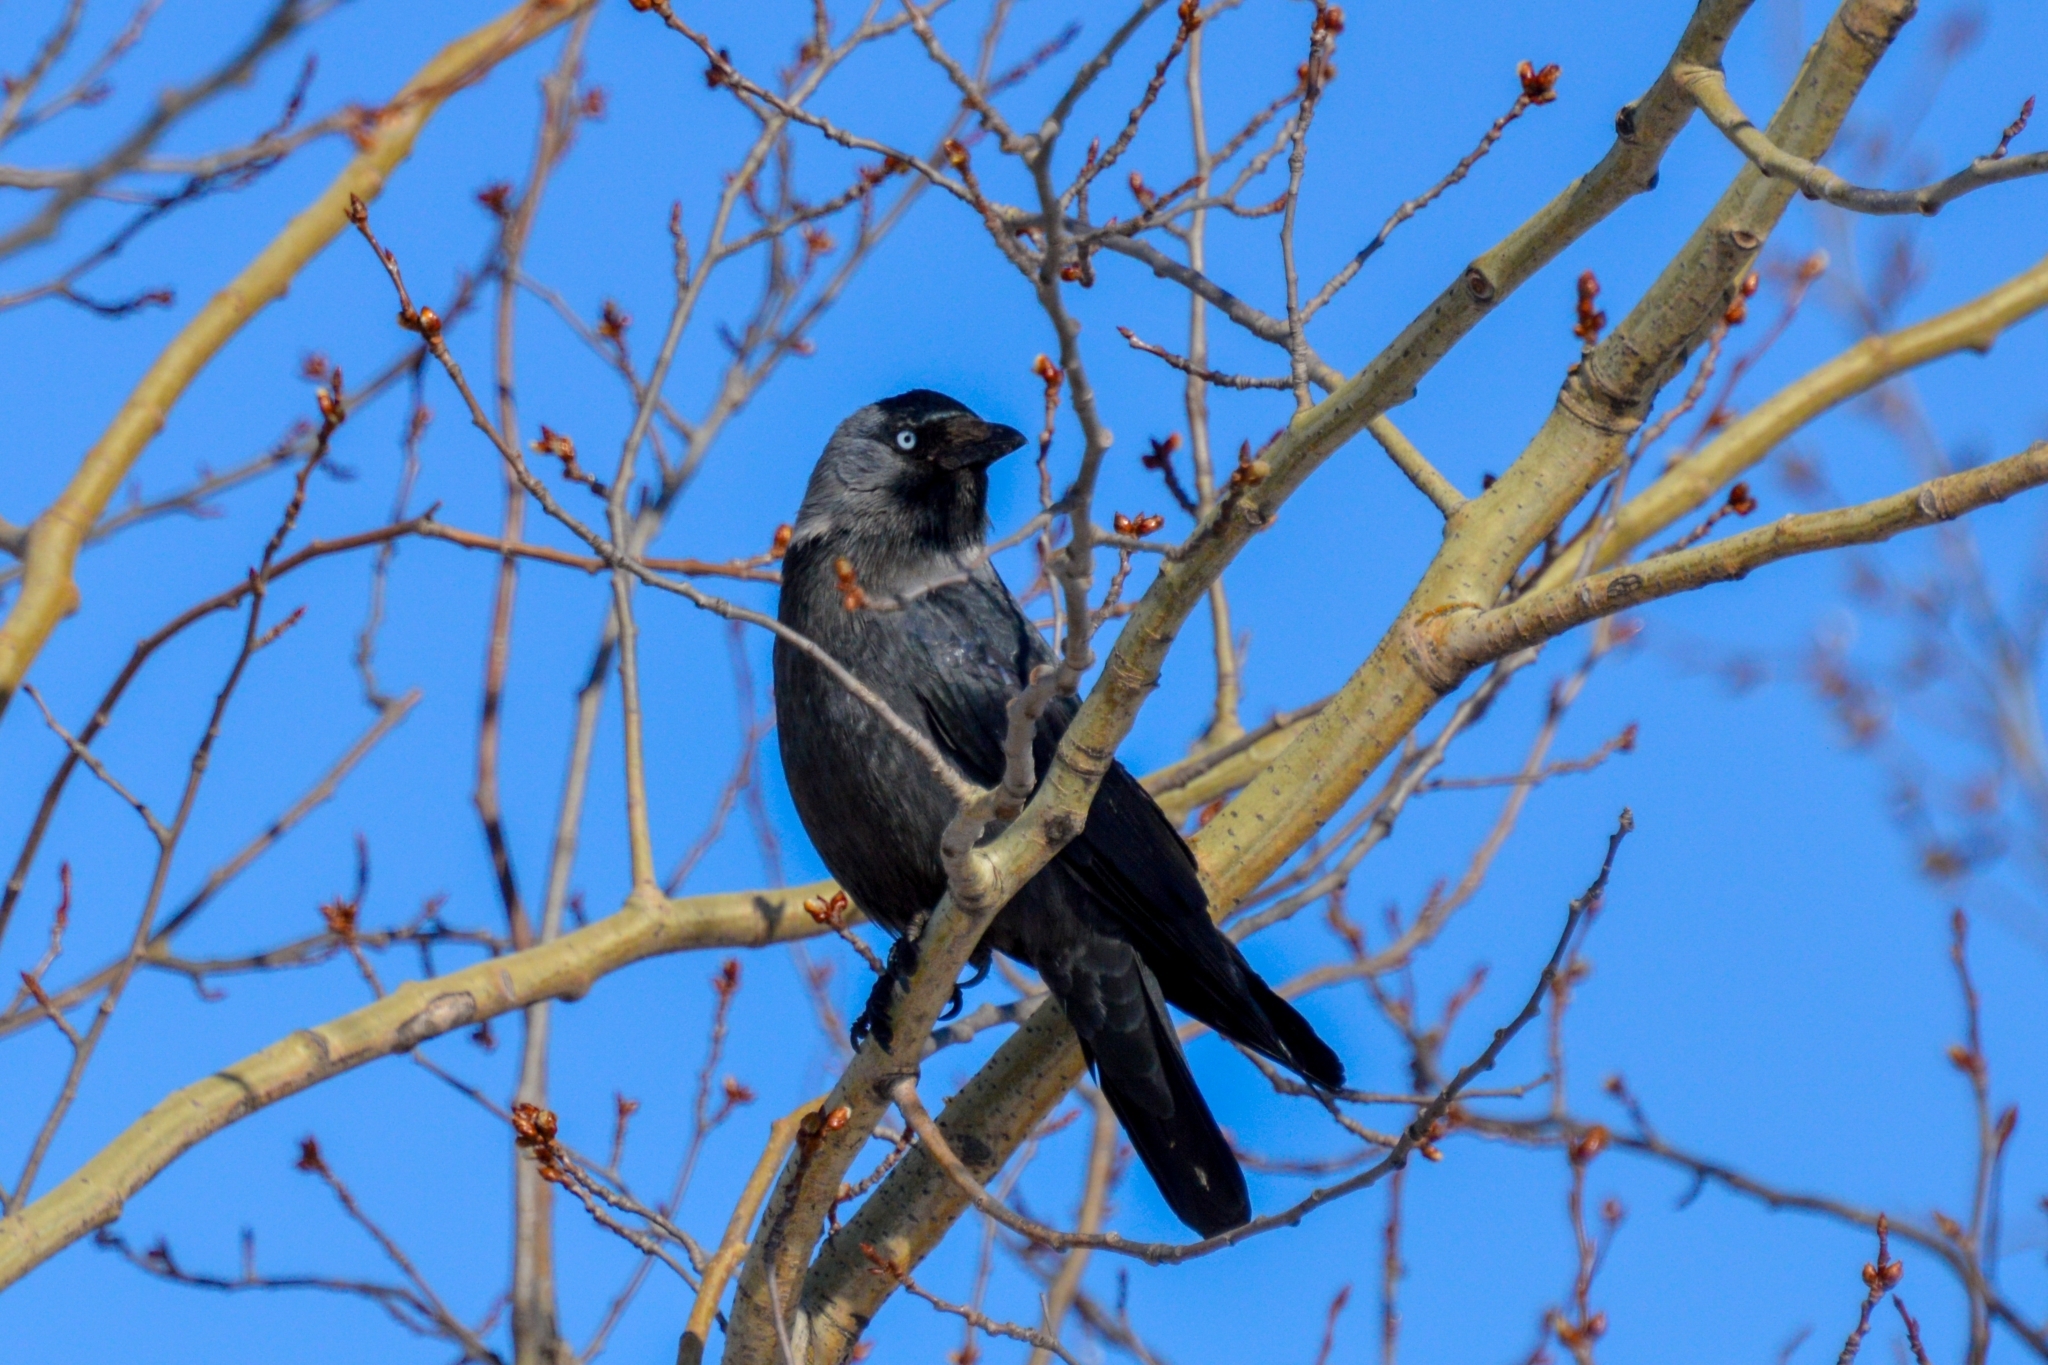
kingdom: Animalia
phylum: Chordata
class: Aves
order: Passeriformes
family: Corvidae
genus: Coloeus
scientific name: Coloeus monedula
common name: Western jackdaw
